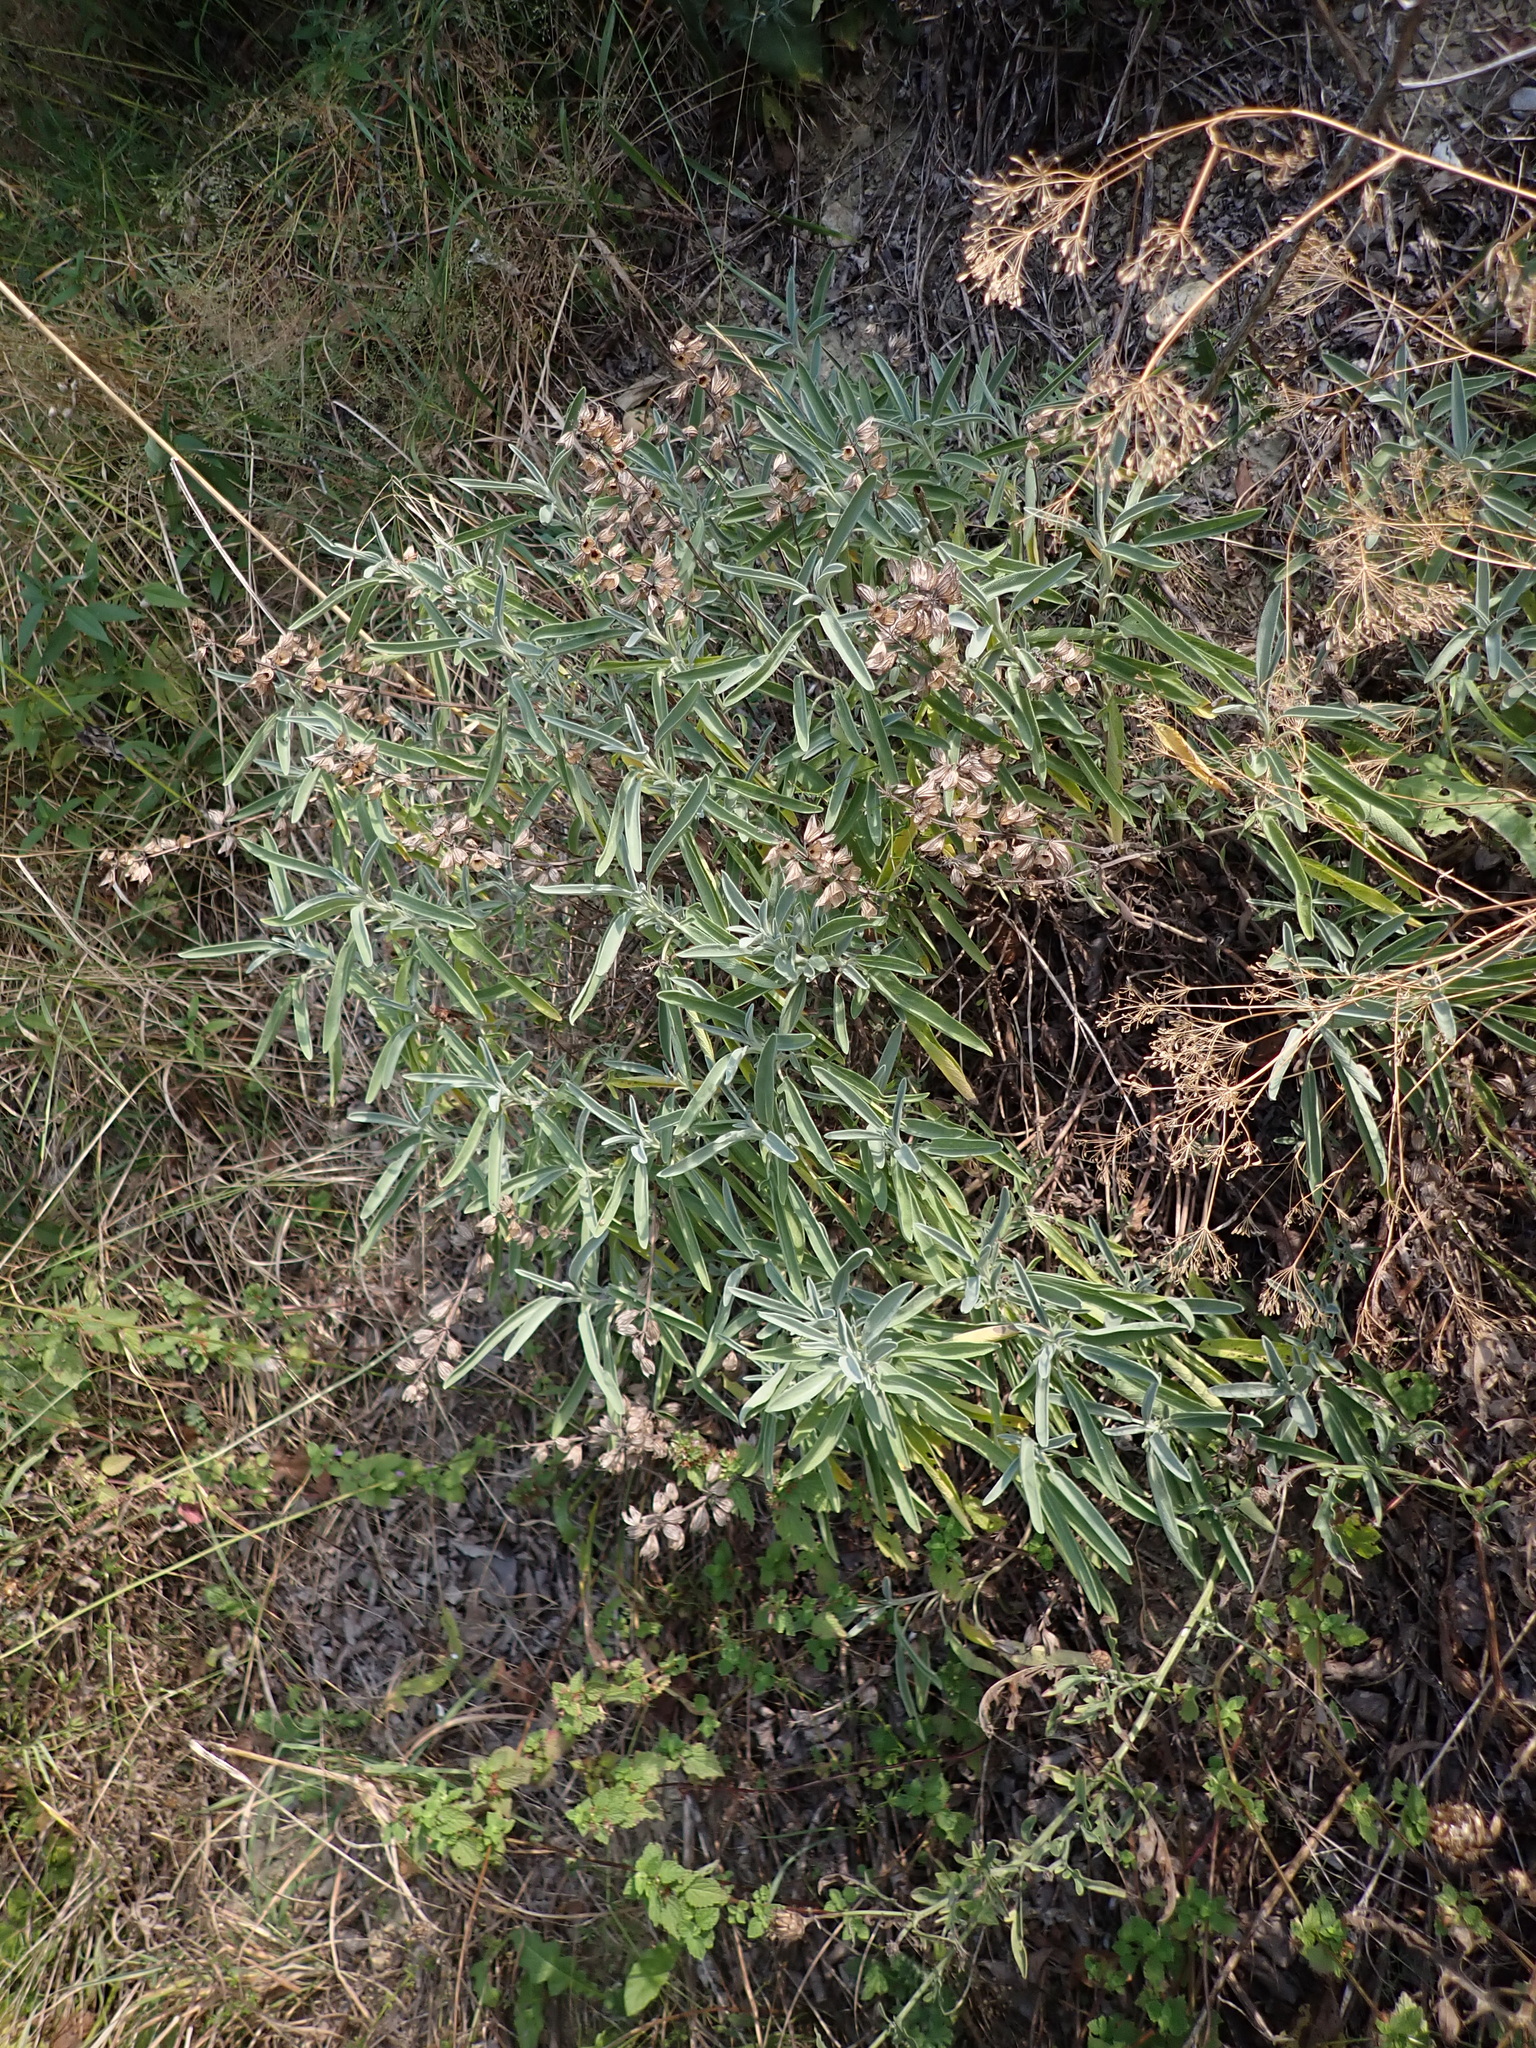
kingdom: Plantae
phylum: Tracheophyta
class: Magnoliopsida
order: Lamiales
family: Lamiaceae
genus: Salvia
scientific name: Salvia officinalis
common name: Sage
